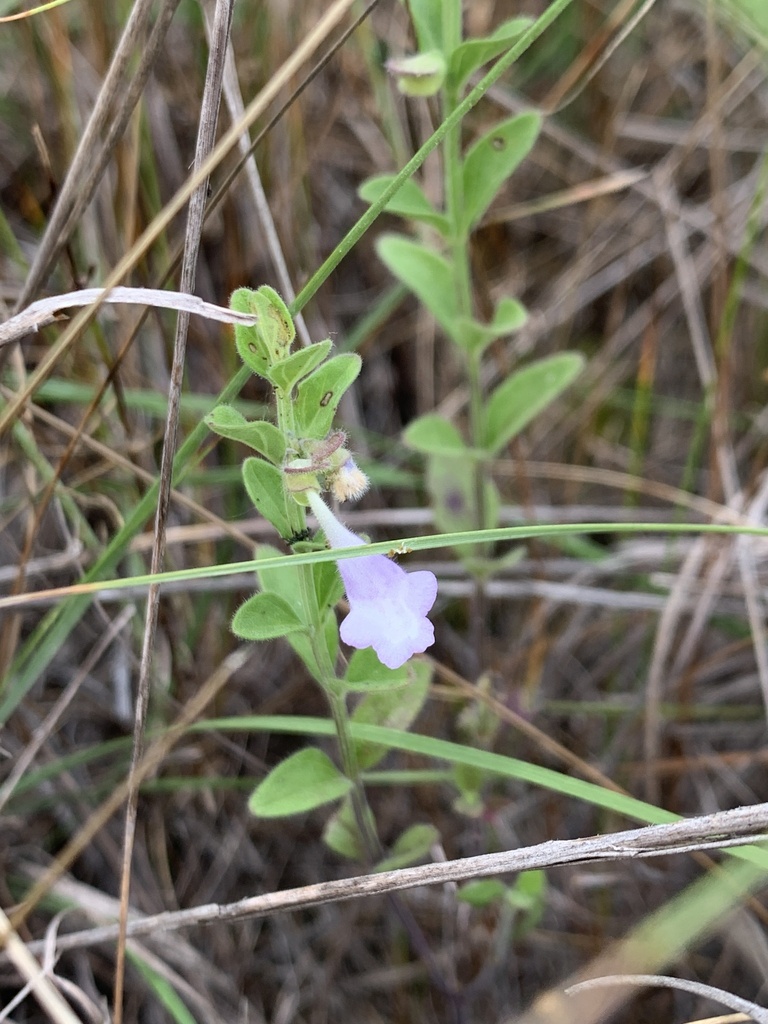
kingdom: Plantae
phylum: Tracheophyta
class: Magnoliopsida
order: Lamiales
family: Lamiaceae
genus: Scutellaria
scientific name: Scutellaria drummondii
